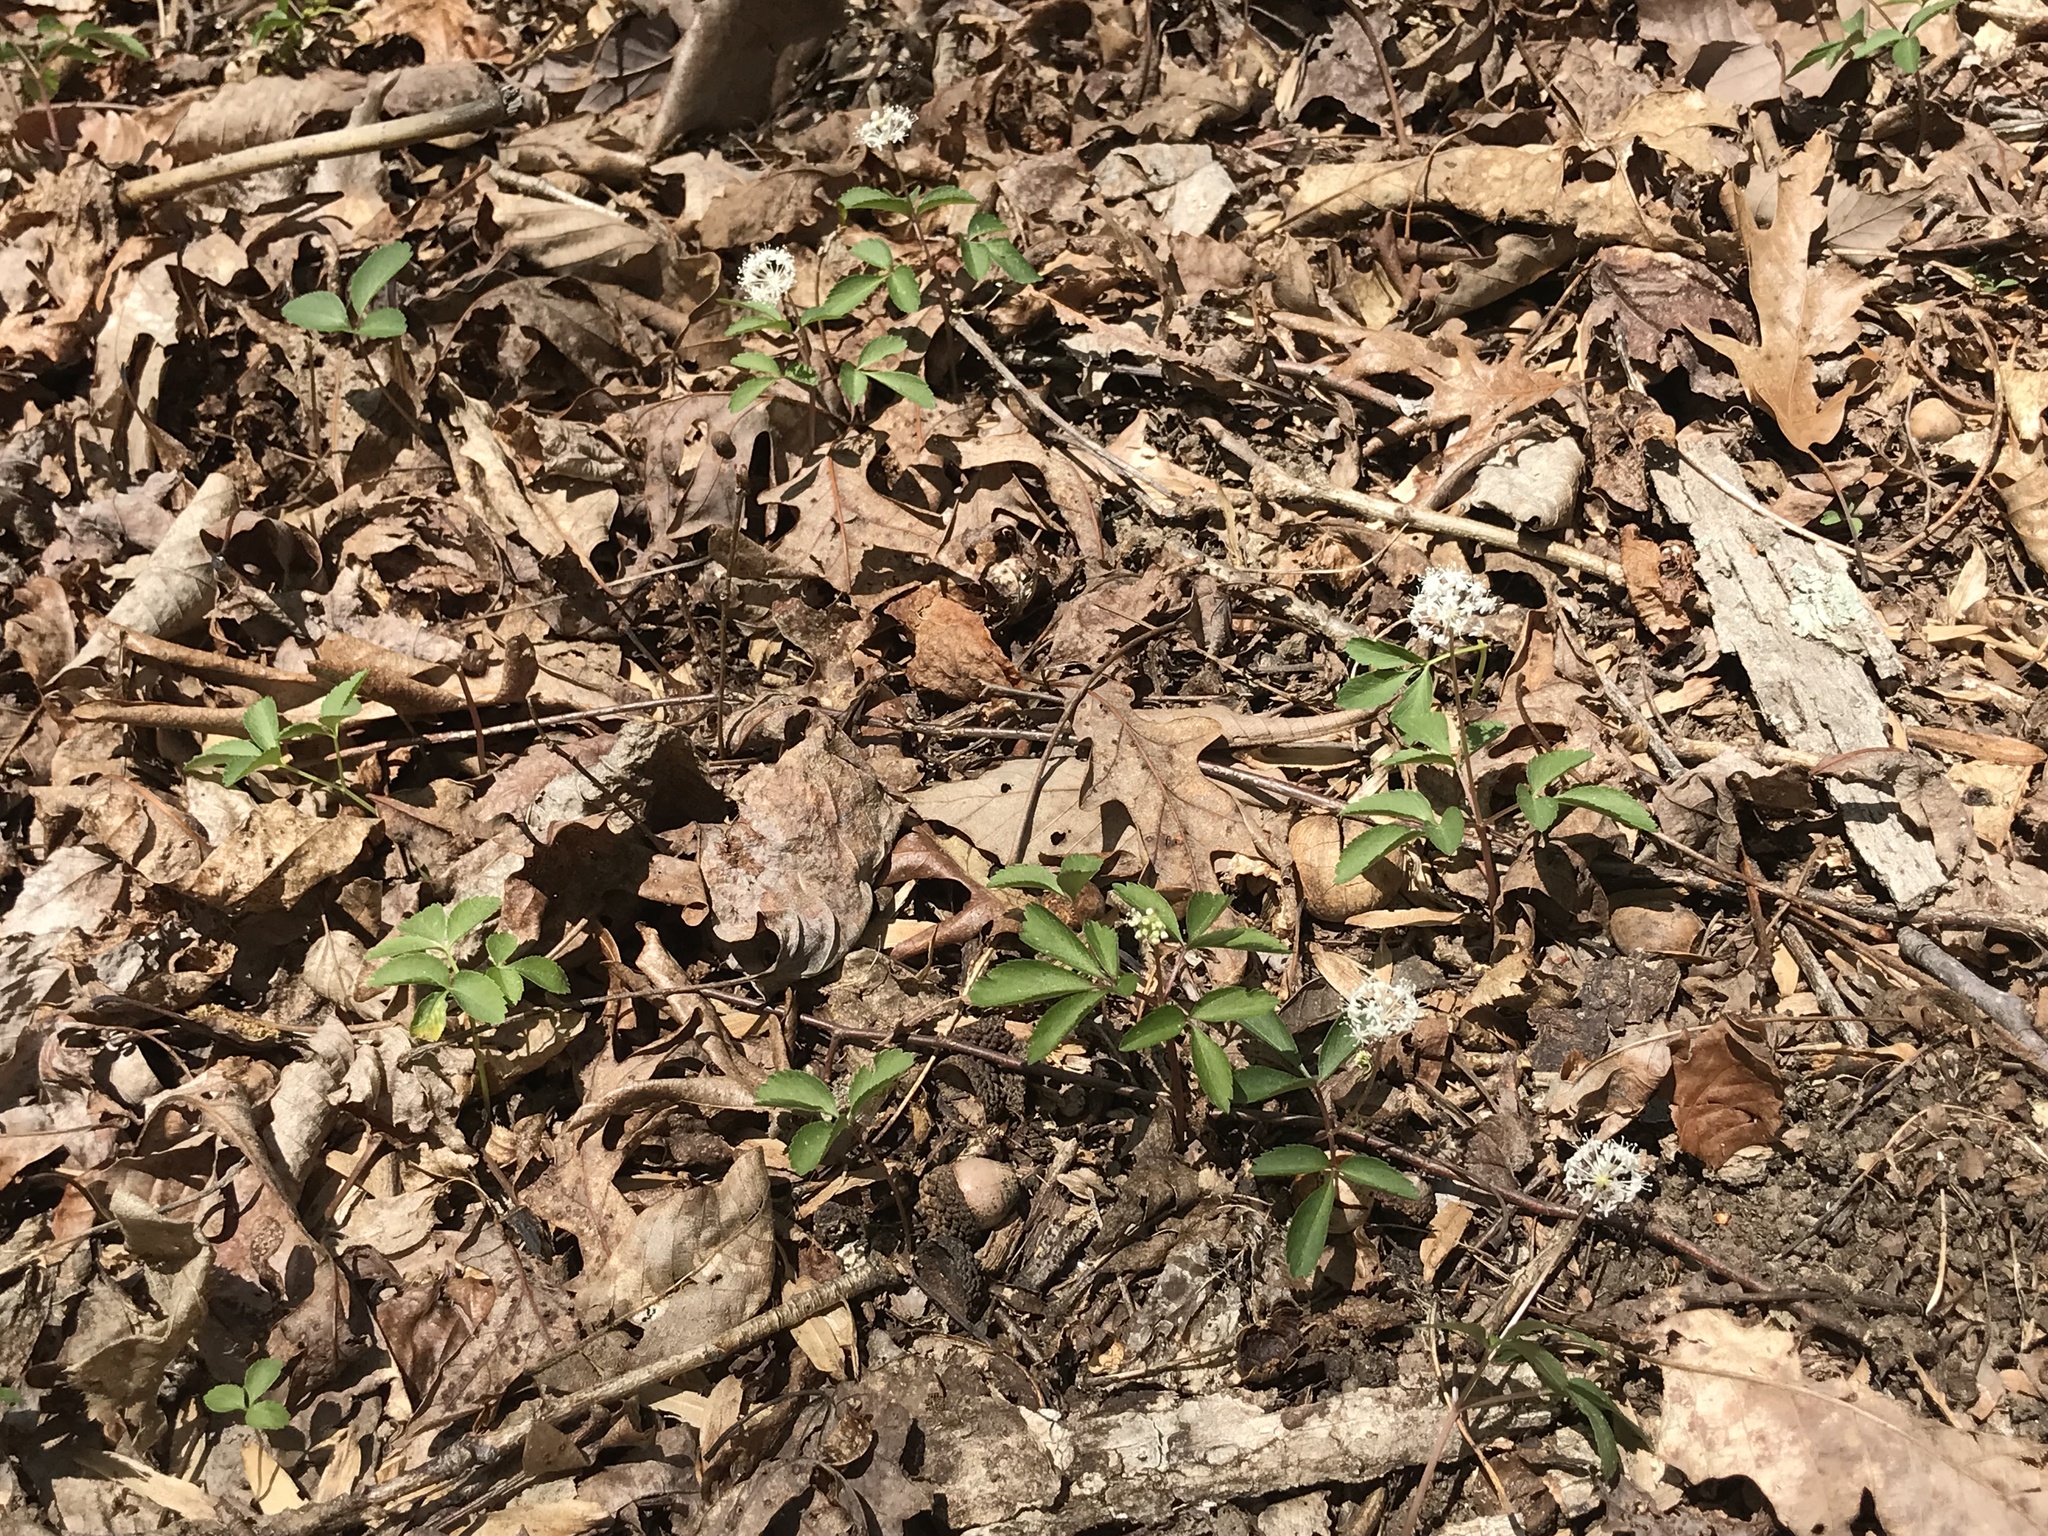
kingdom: Plantae
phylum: Tracheophyta
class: Magnoliopsida
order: Apiales
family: Araliaceae
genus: Panax
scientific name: Panax trifolius
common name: Dwarf ginseng
